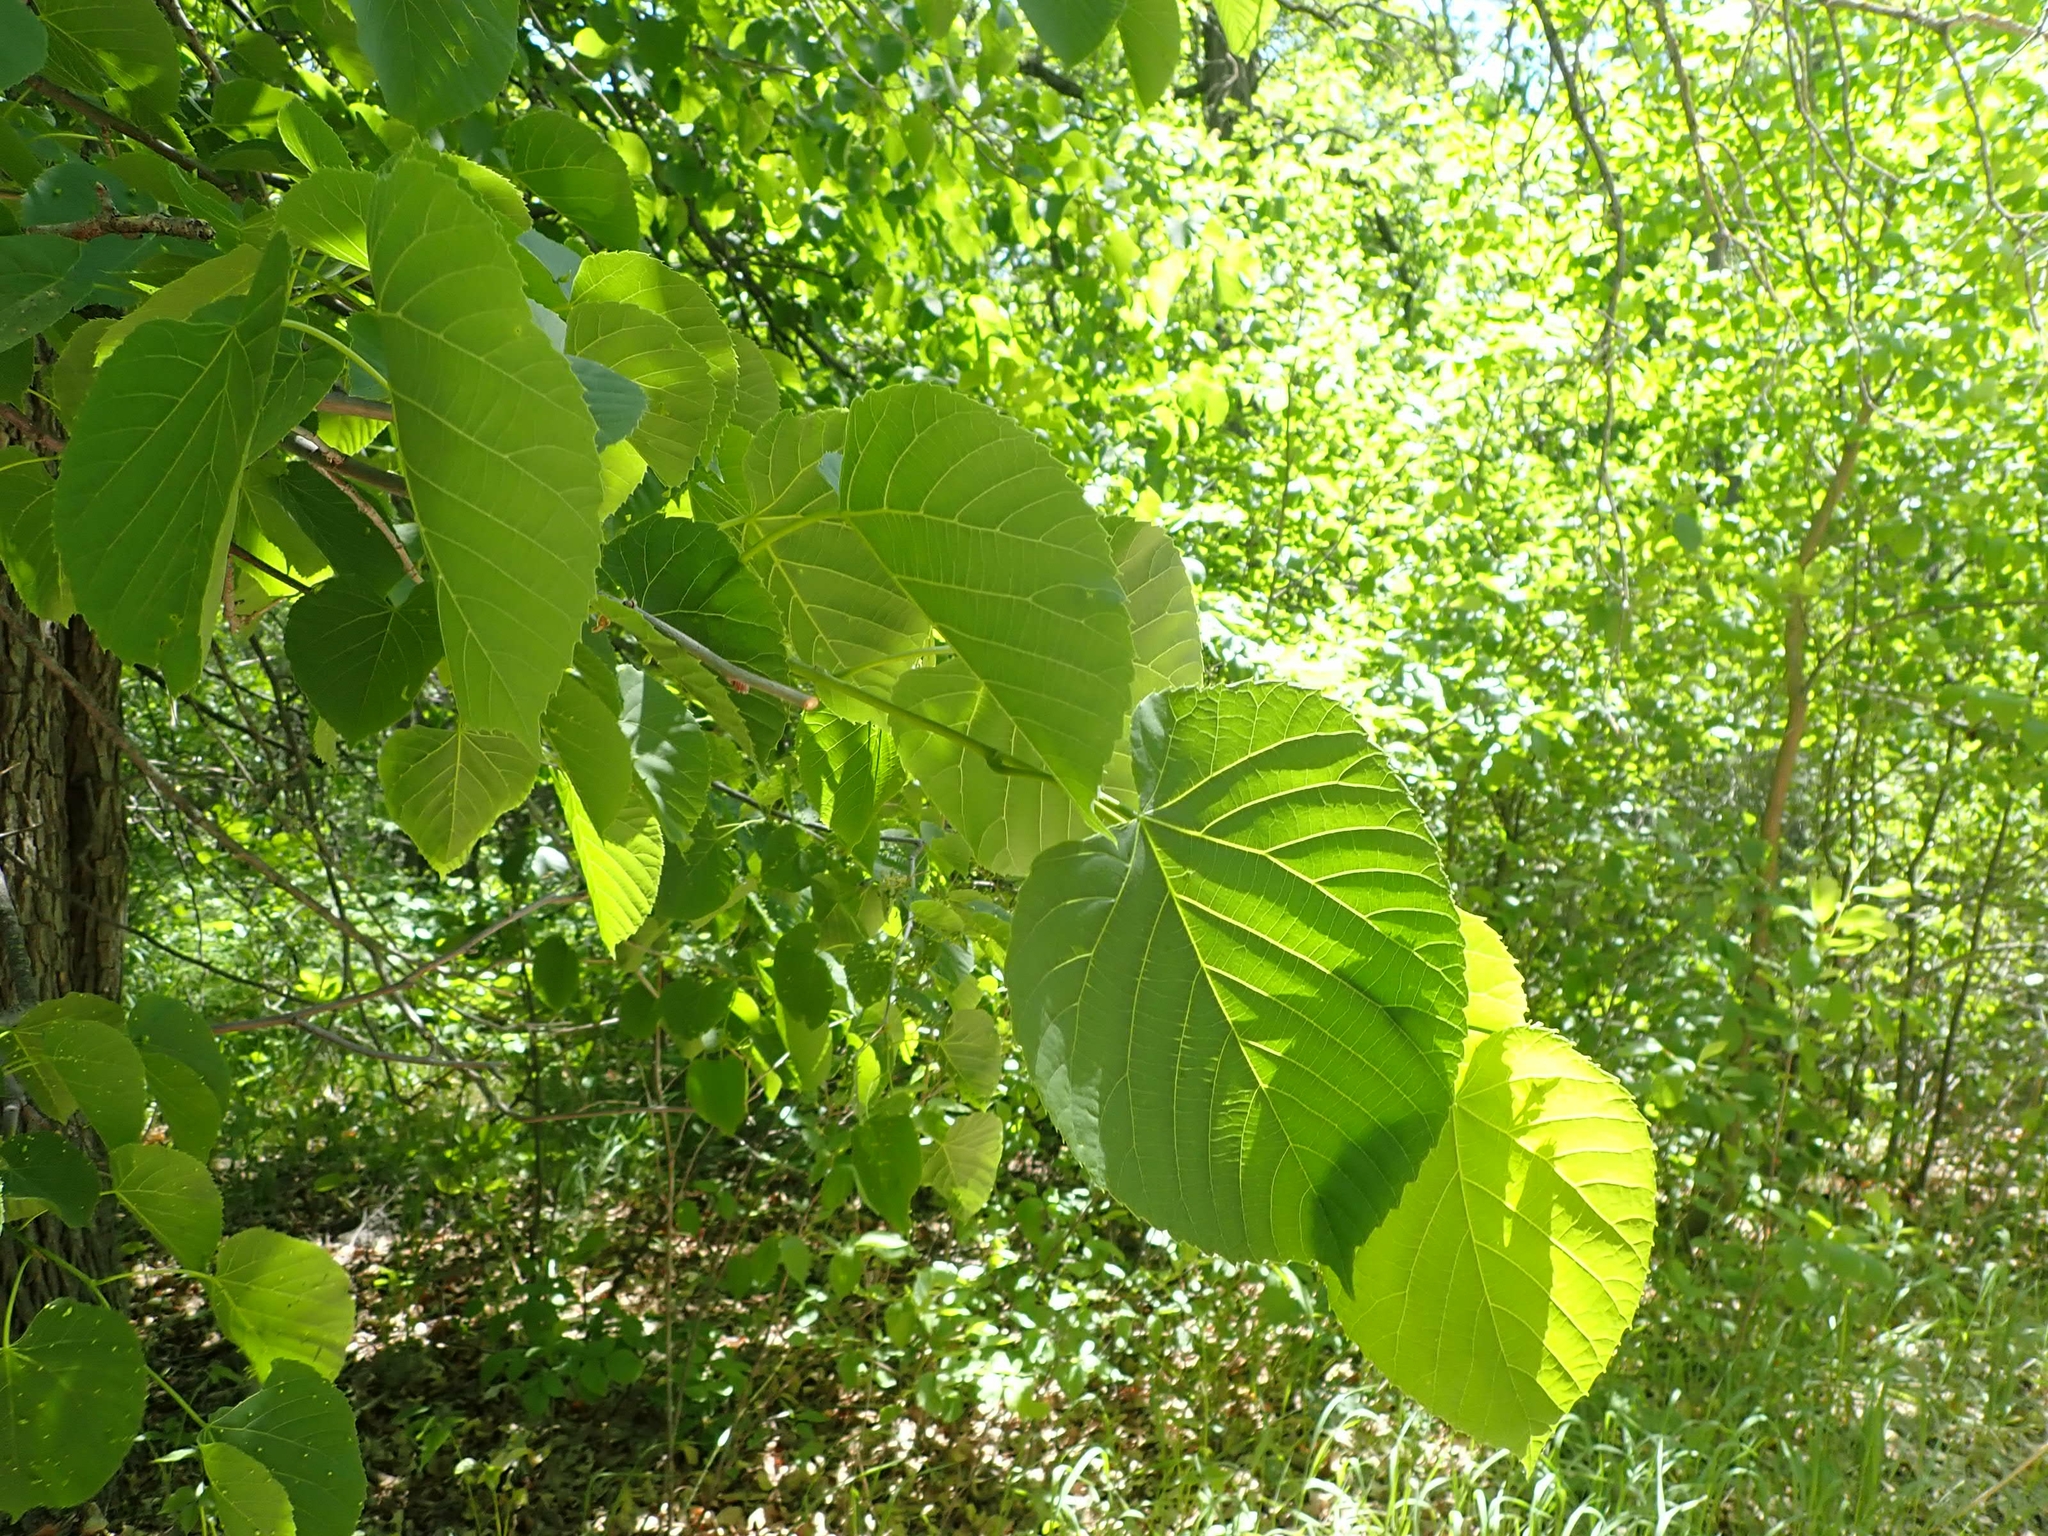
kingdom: Plantae
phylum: Tracheophyta
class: Magnoliopsida
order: Malvales
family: Malvaceae
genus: Tilia
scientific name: Tilia americana
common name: Basswood
